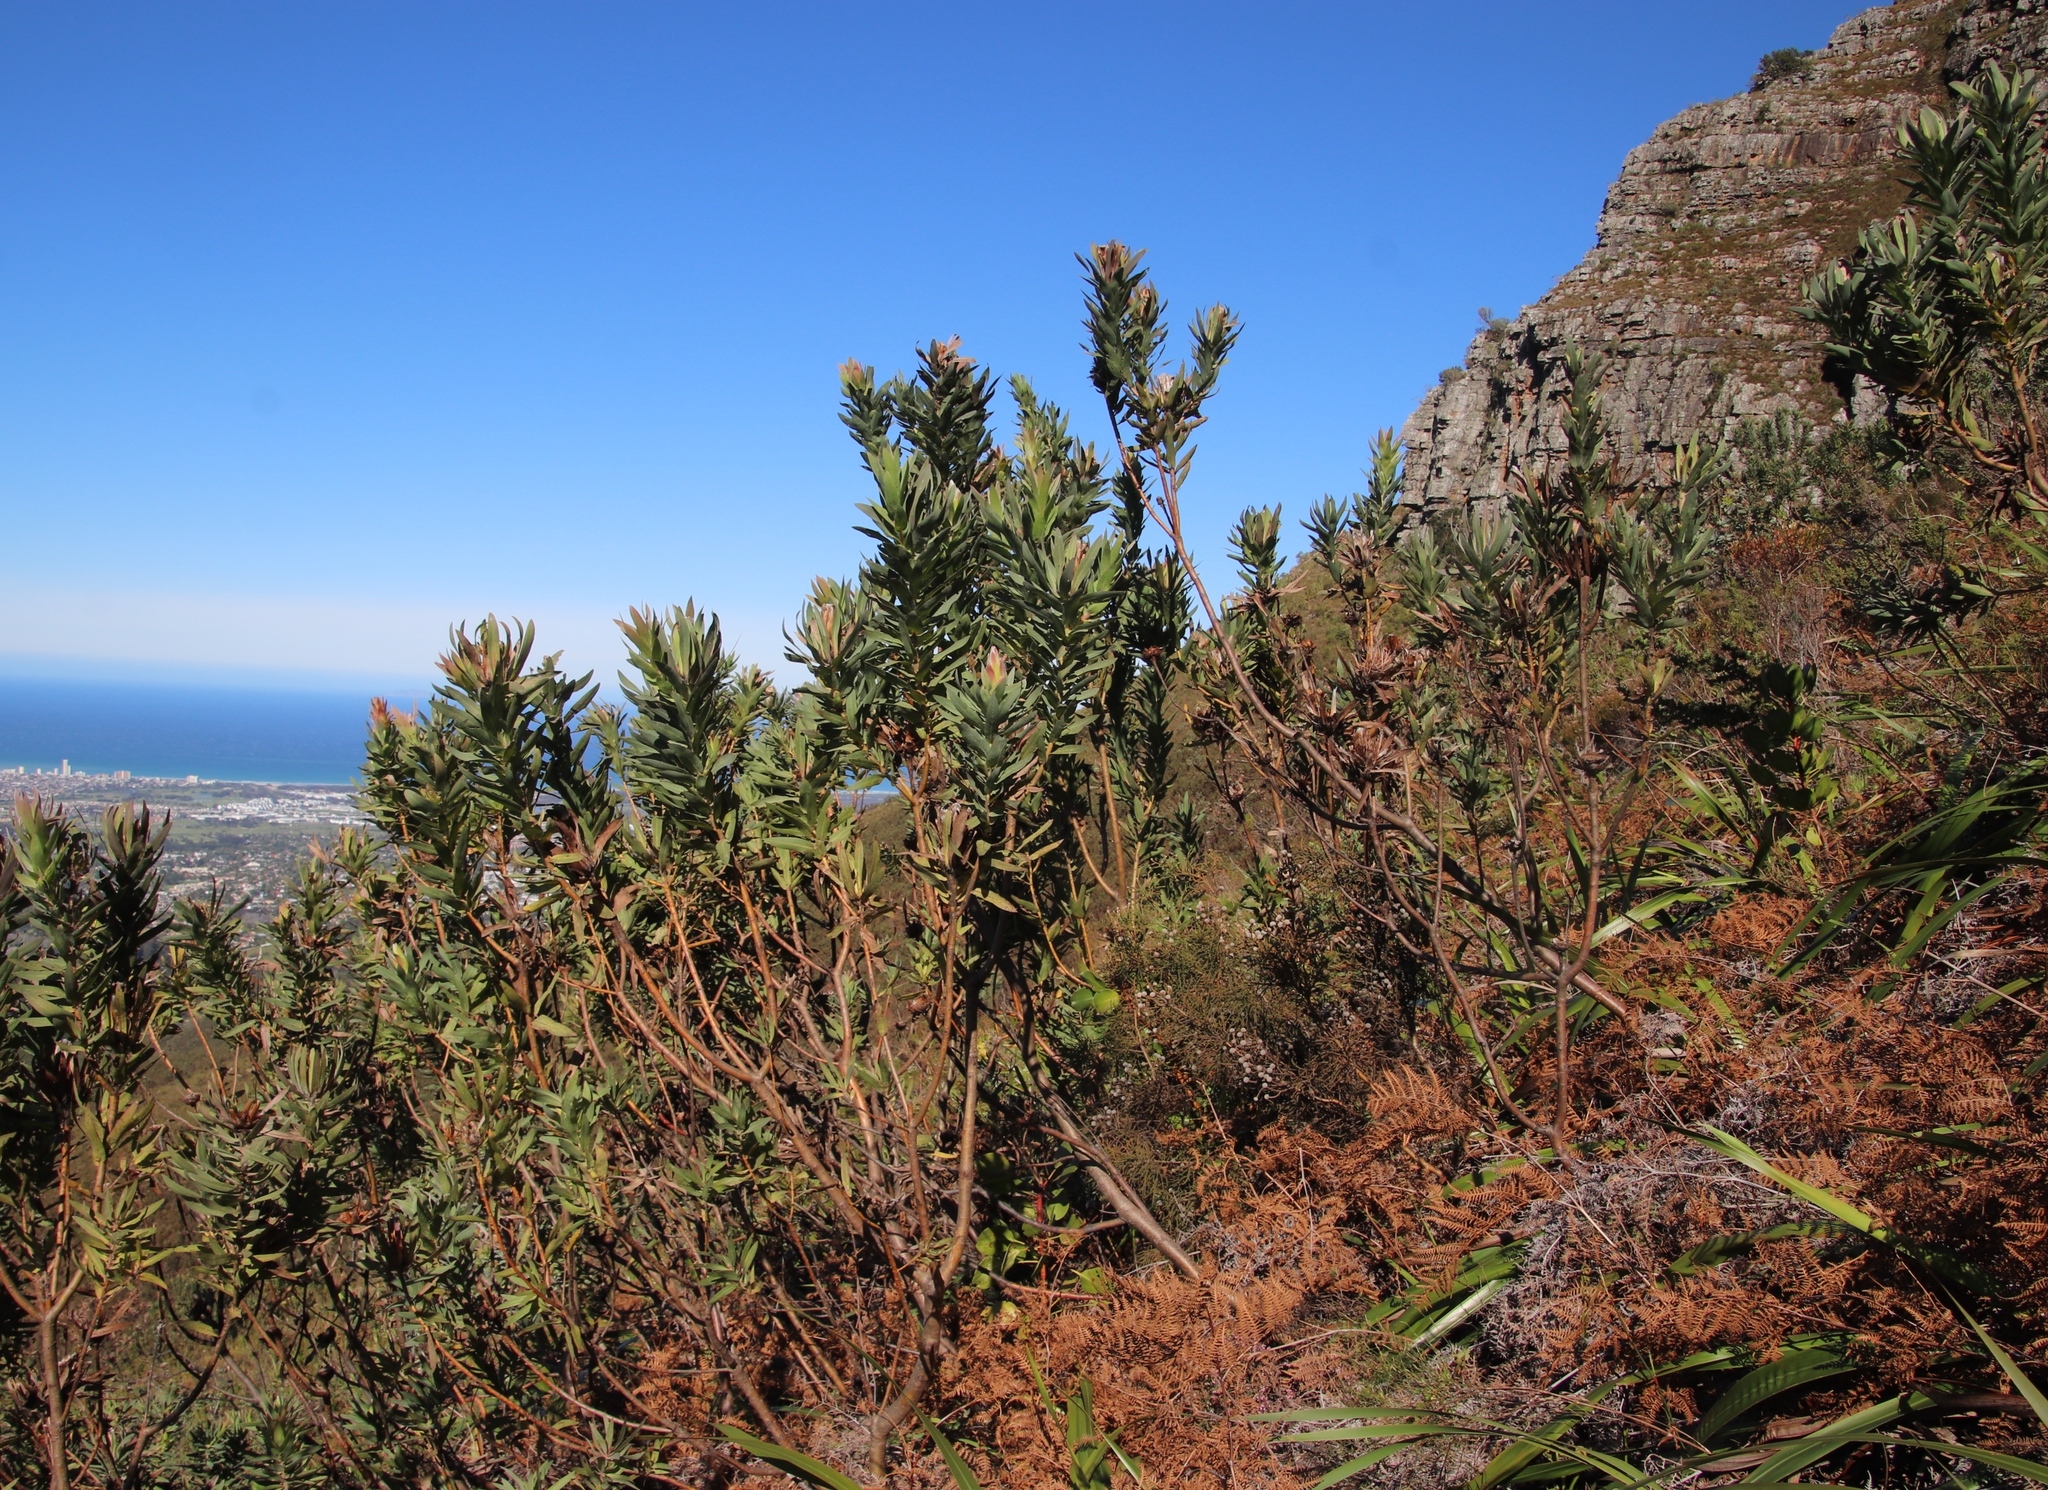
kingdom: Plantae
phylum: Tracheophyta
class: Magnoliopsida
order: Proteales
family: Proteaceae
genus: Protea
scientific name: Protea coronata
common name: Green sugarbush
